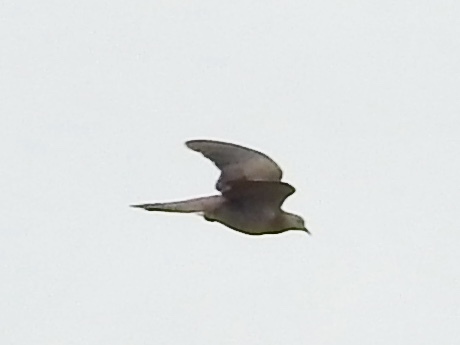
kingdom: Animalia
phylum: Chordata
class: Aves
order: Columbiformes
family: Columbidae
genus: Zenaida
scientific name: Zenaida macroura
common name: Mourning dove
